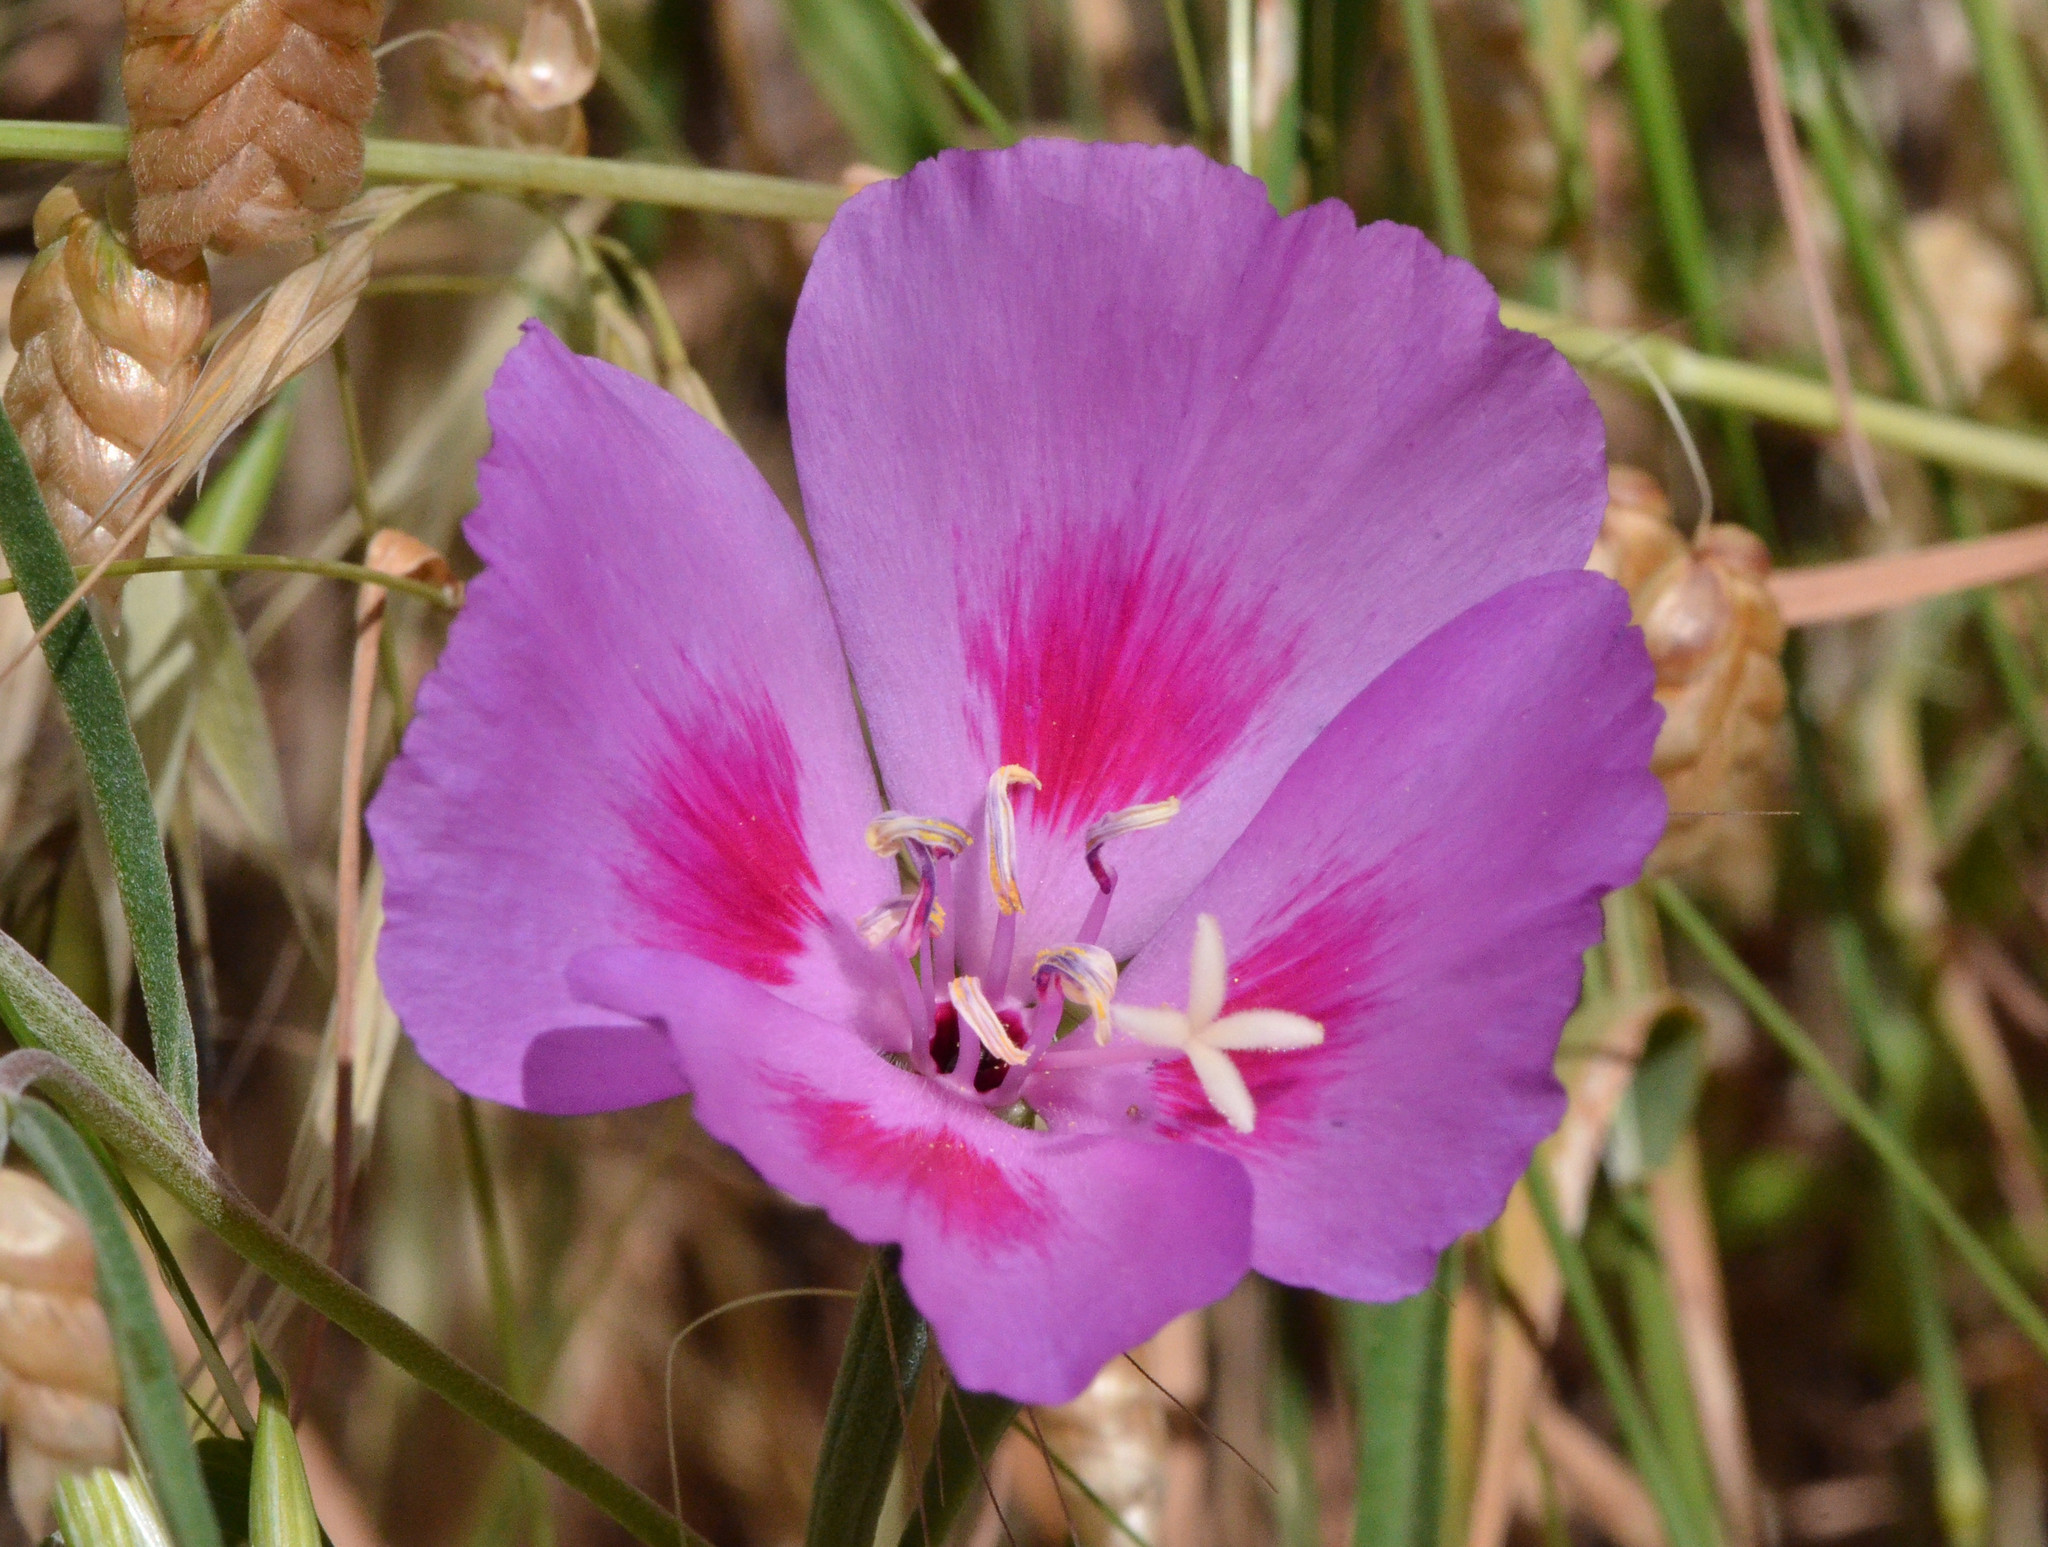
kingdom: Plantae
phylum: Tracheophyta
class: Magnoliopsida
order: Myrtales
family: Onagraceae
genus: Clarkia
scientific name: Clarkia amoena
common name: Godetia
